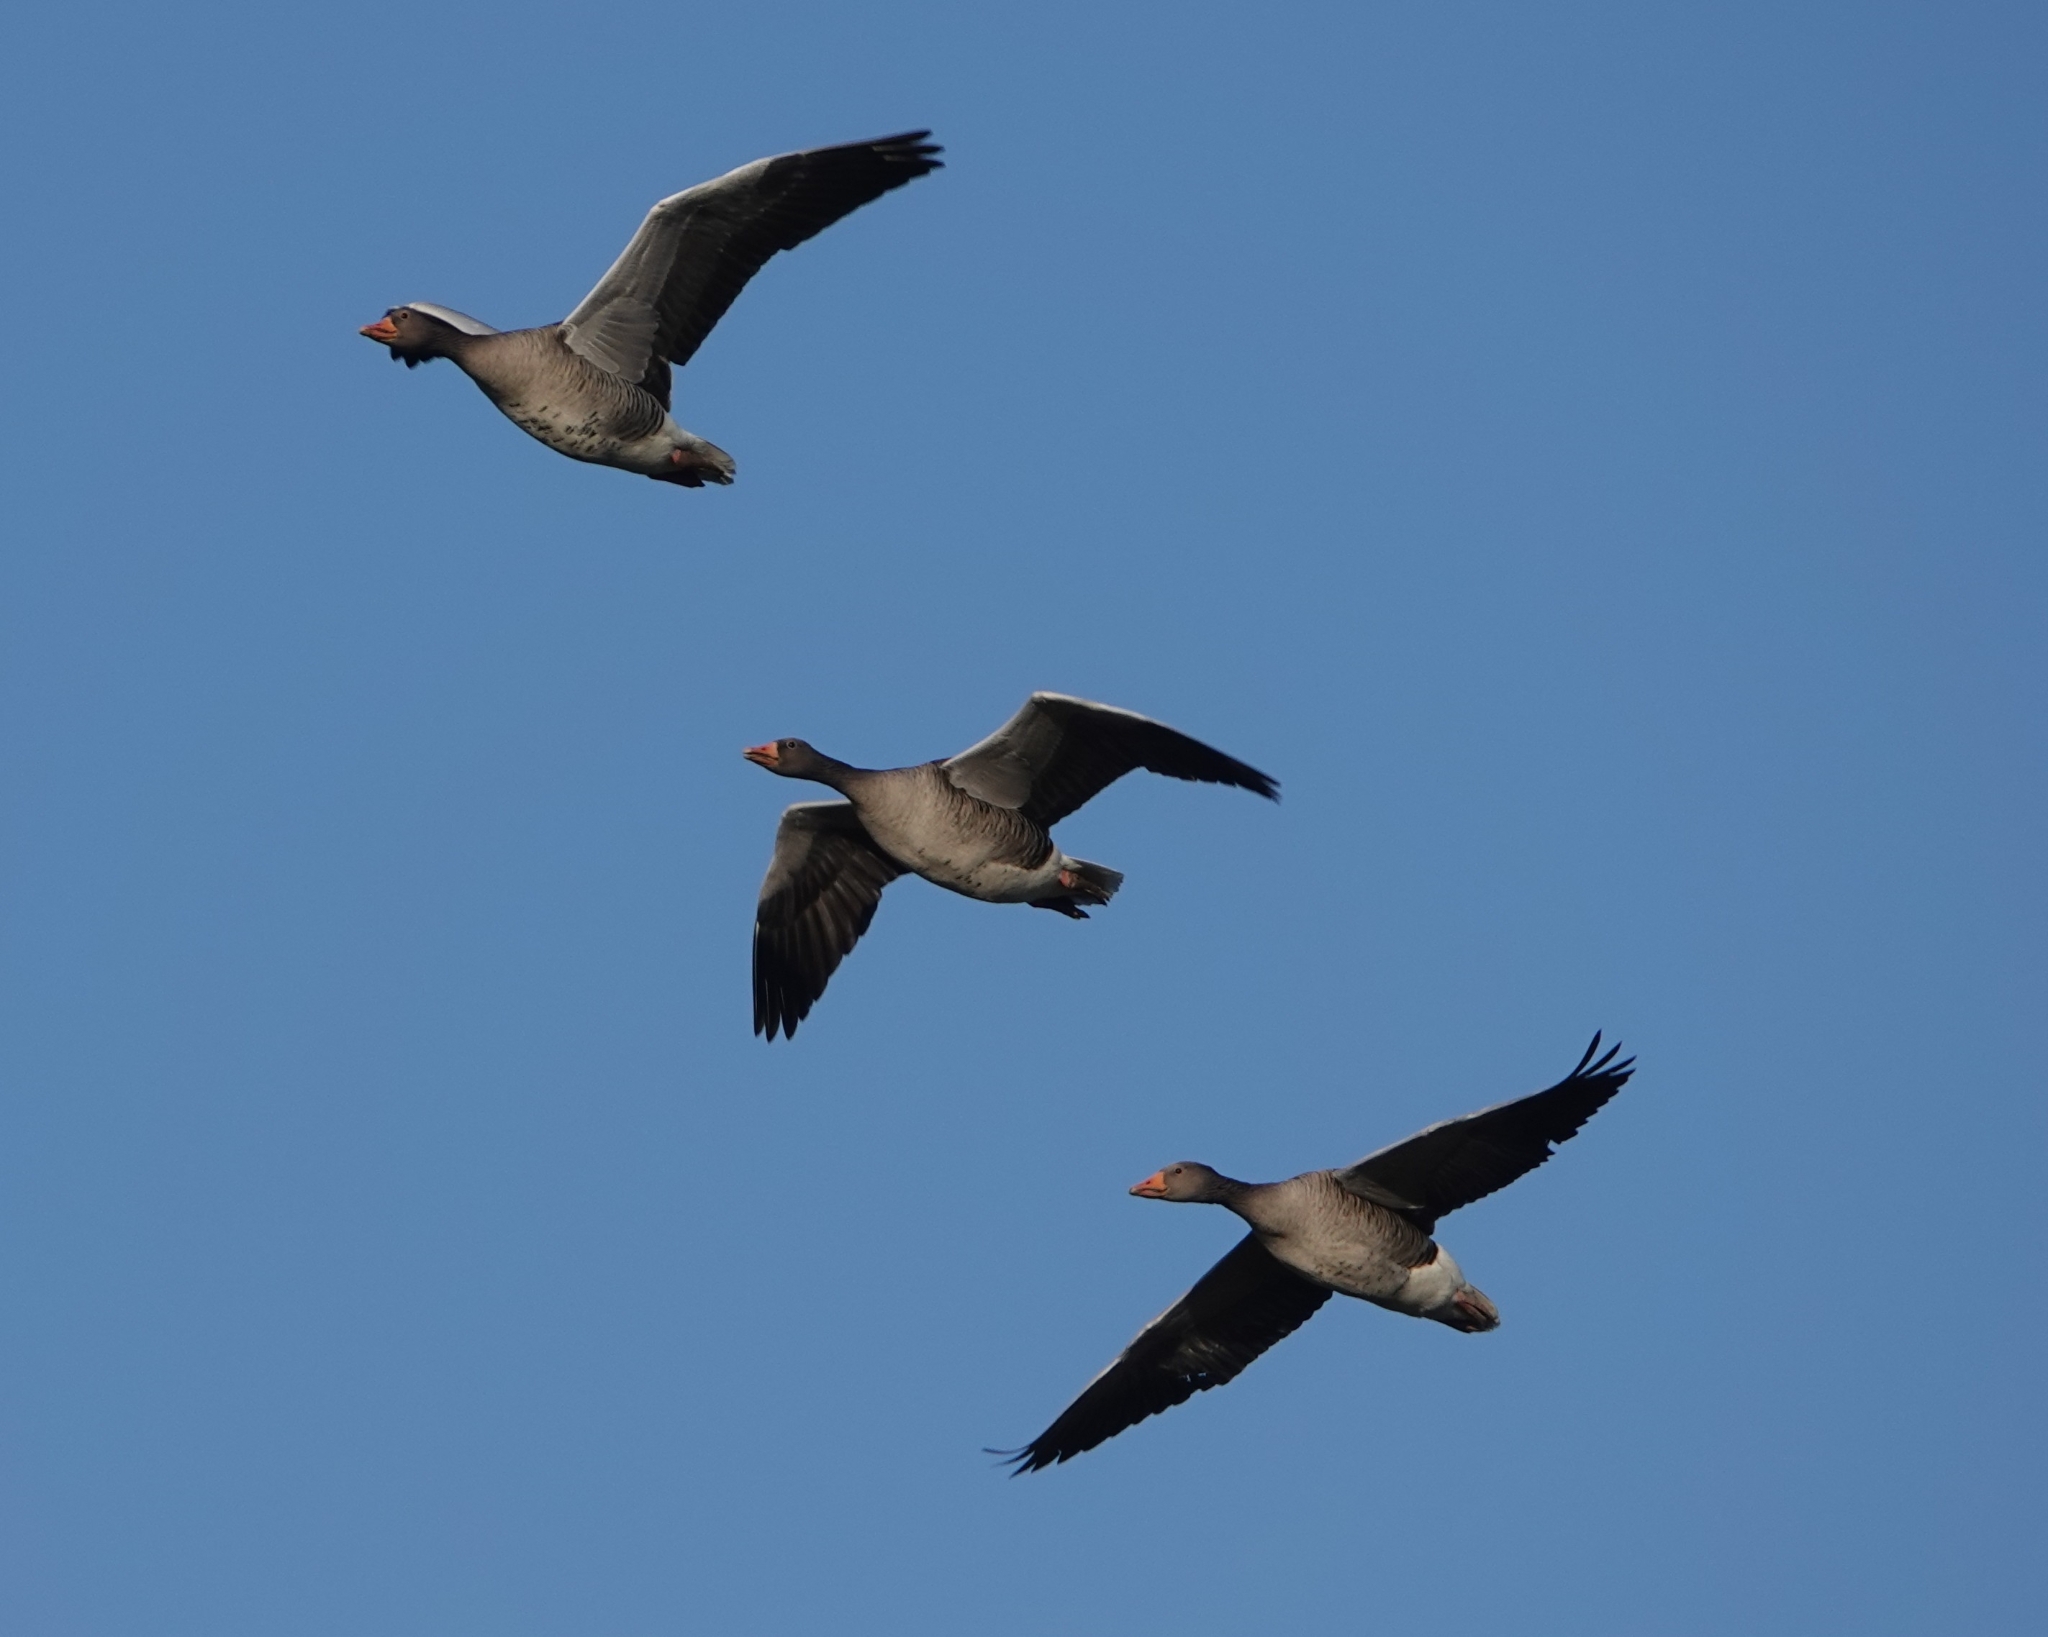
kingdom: Animalia
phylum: Chordata
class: Aves
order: Anseriformes
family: Anatidae
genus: Anser
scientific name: Anser anser
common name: Greylag goose
